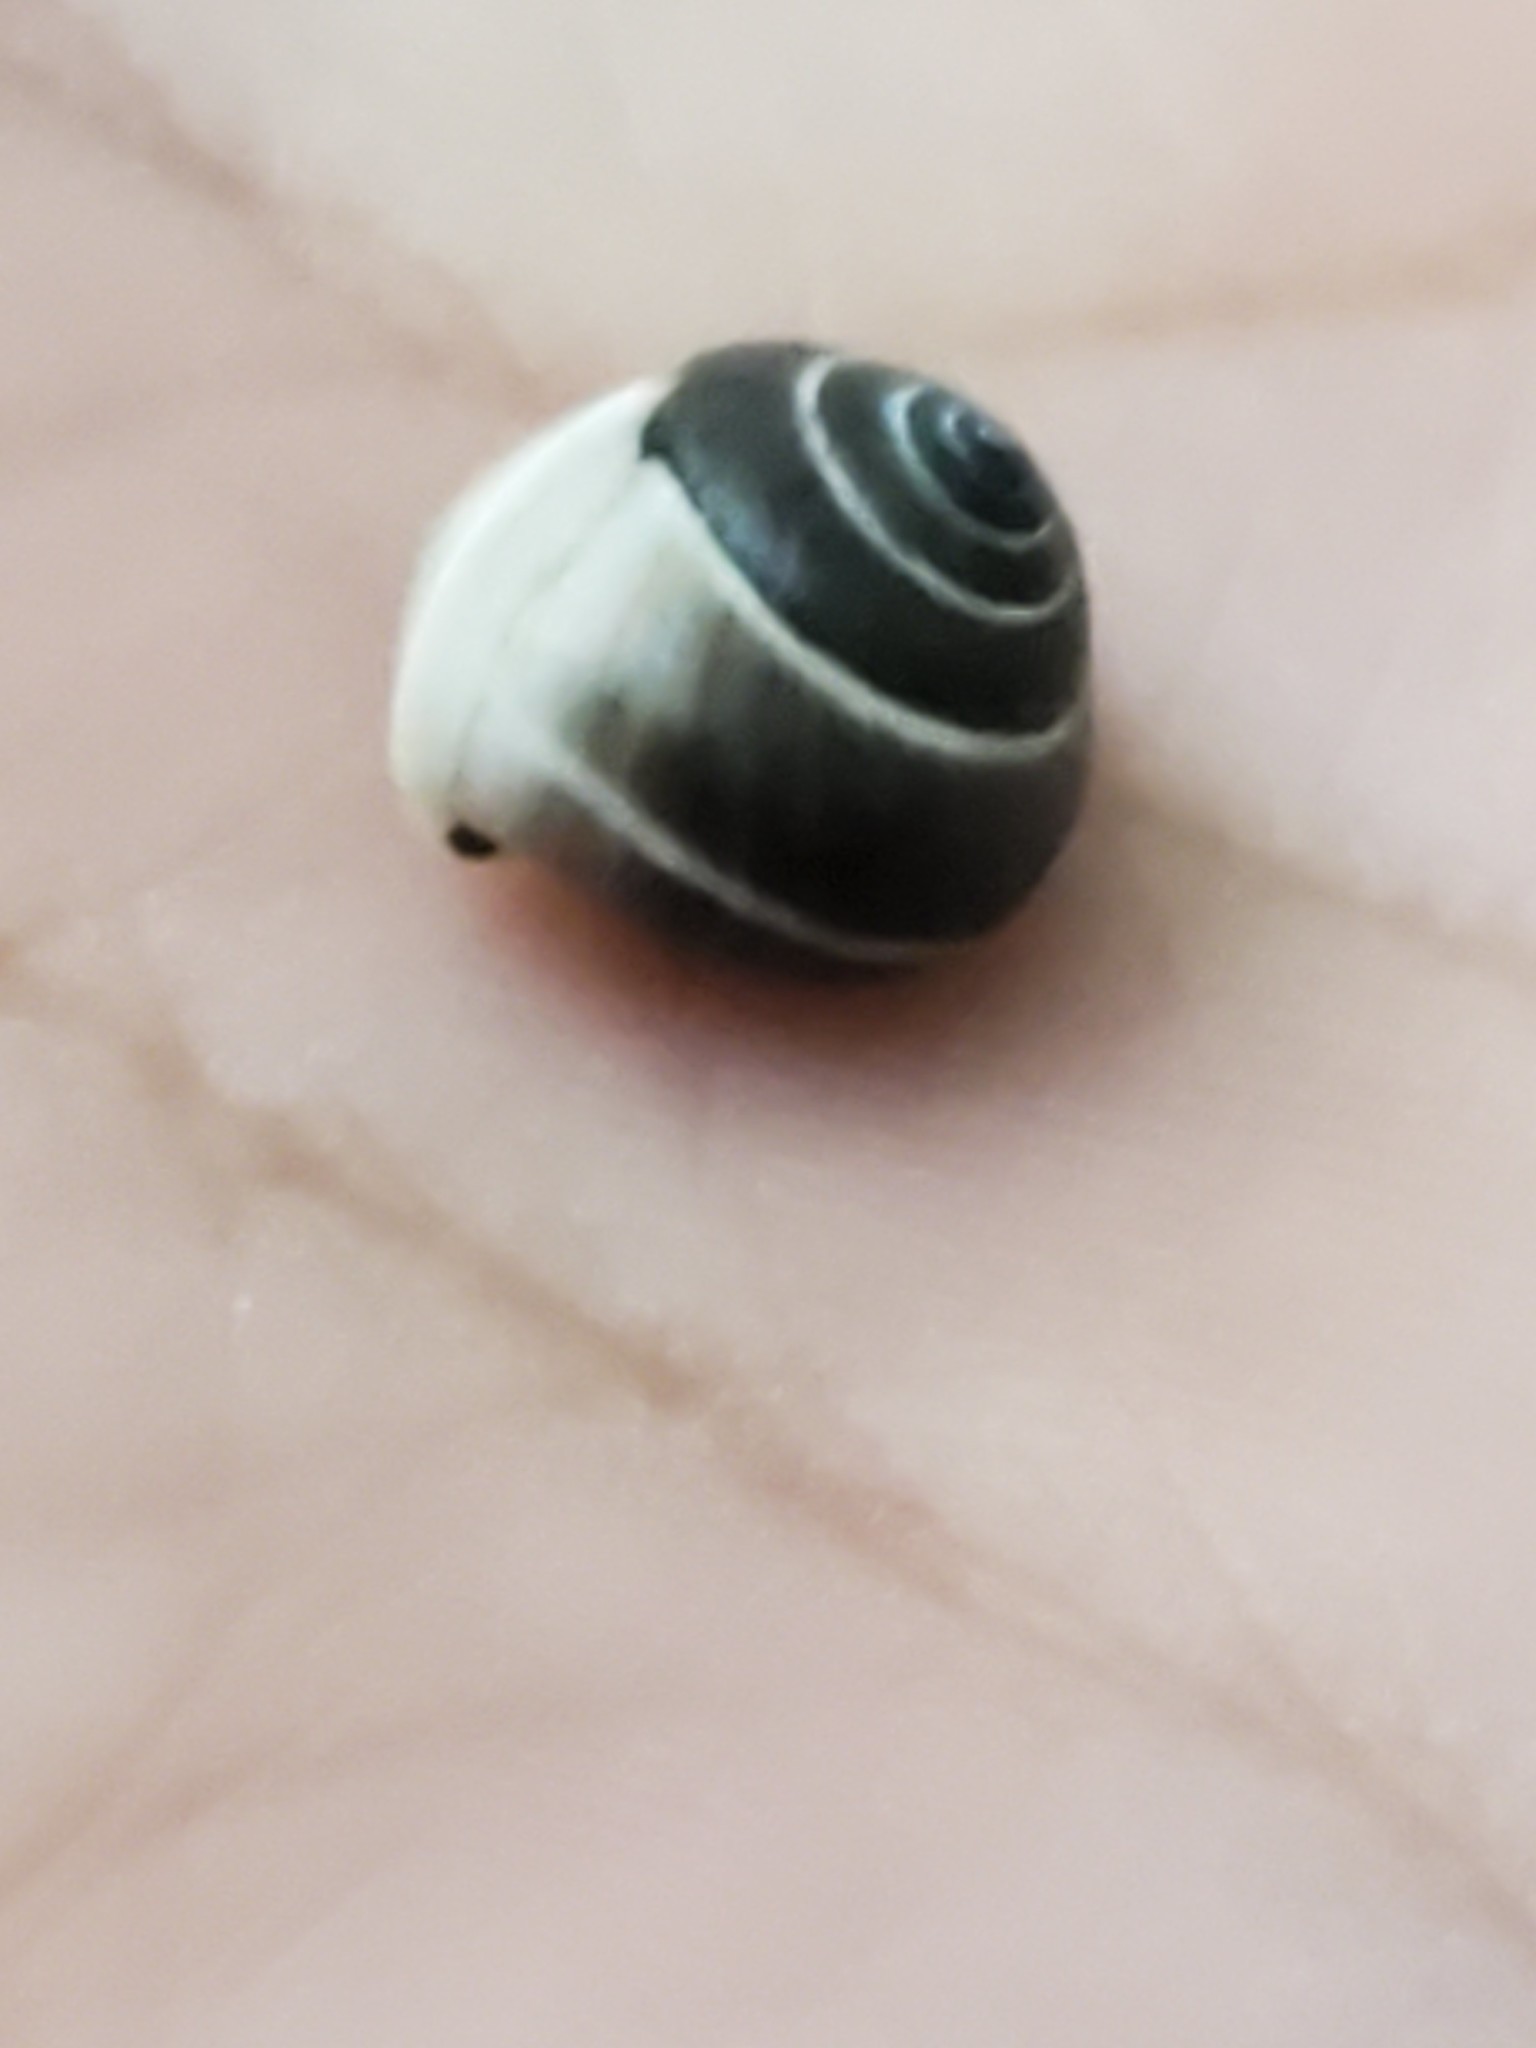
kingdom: Animalia
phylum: Mollusca
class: Gastropoda
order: Cycloneritida
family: Helicinidae
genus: Helicina
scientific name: Helicina orbiculata
